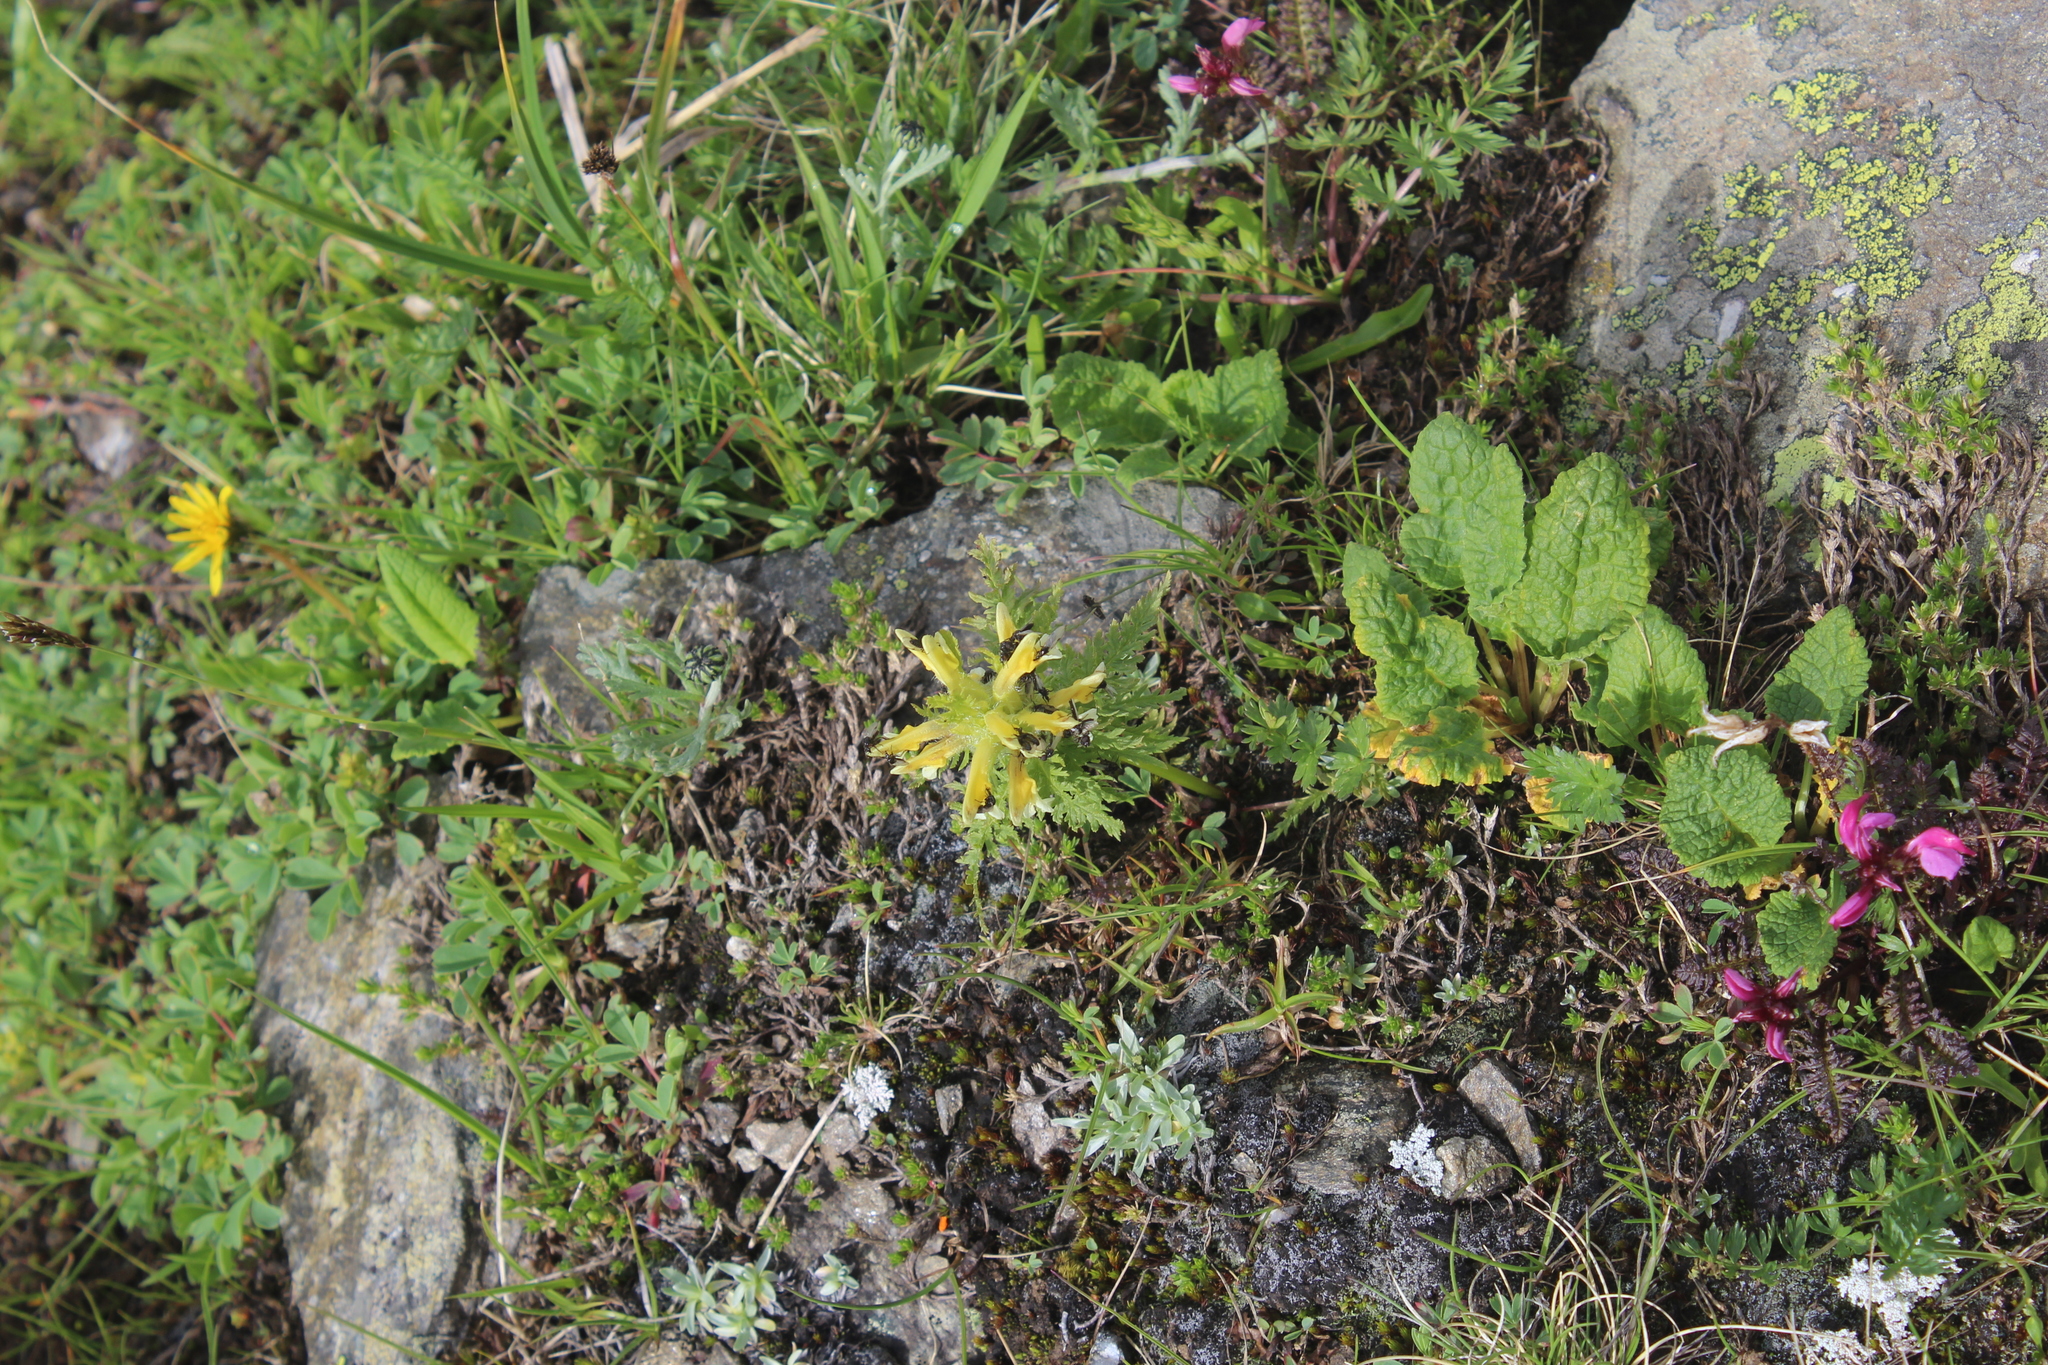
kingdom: Plantae
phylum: Tracheophyta
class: Magnoliopsida
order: Lamiales
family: Orobanchaceae
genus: Pedicularis
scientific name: Pedicularis condensata
